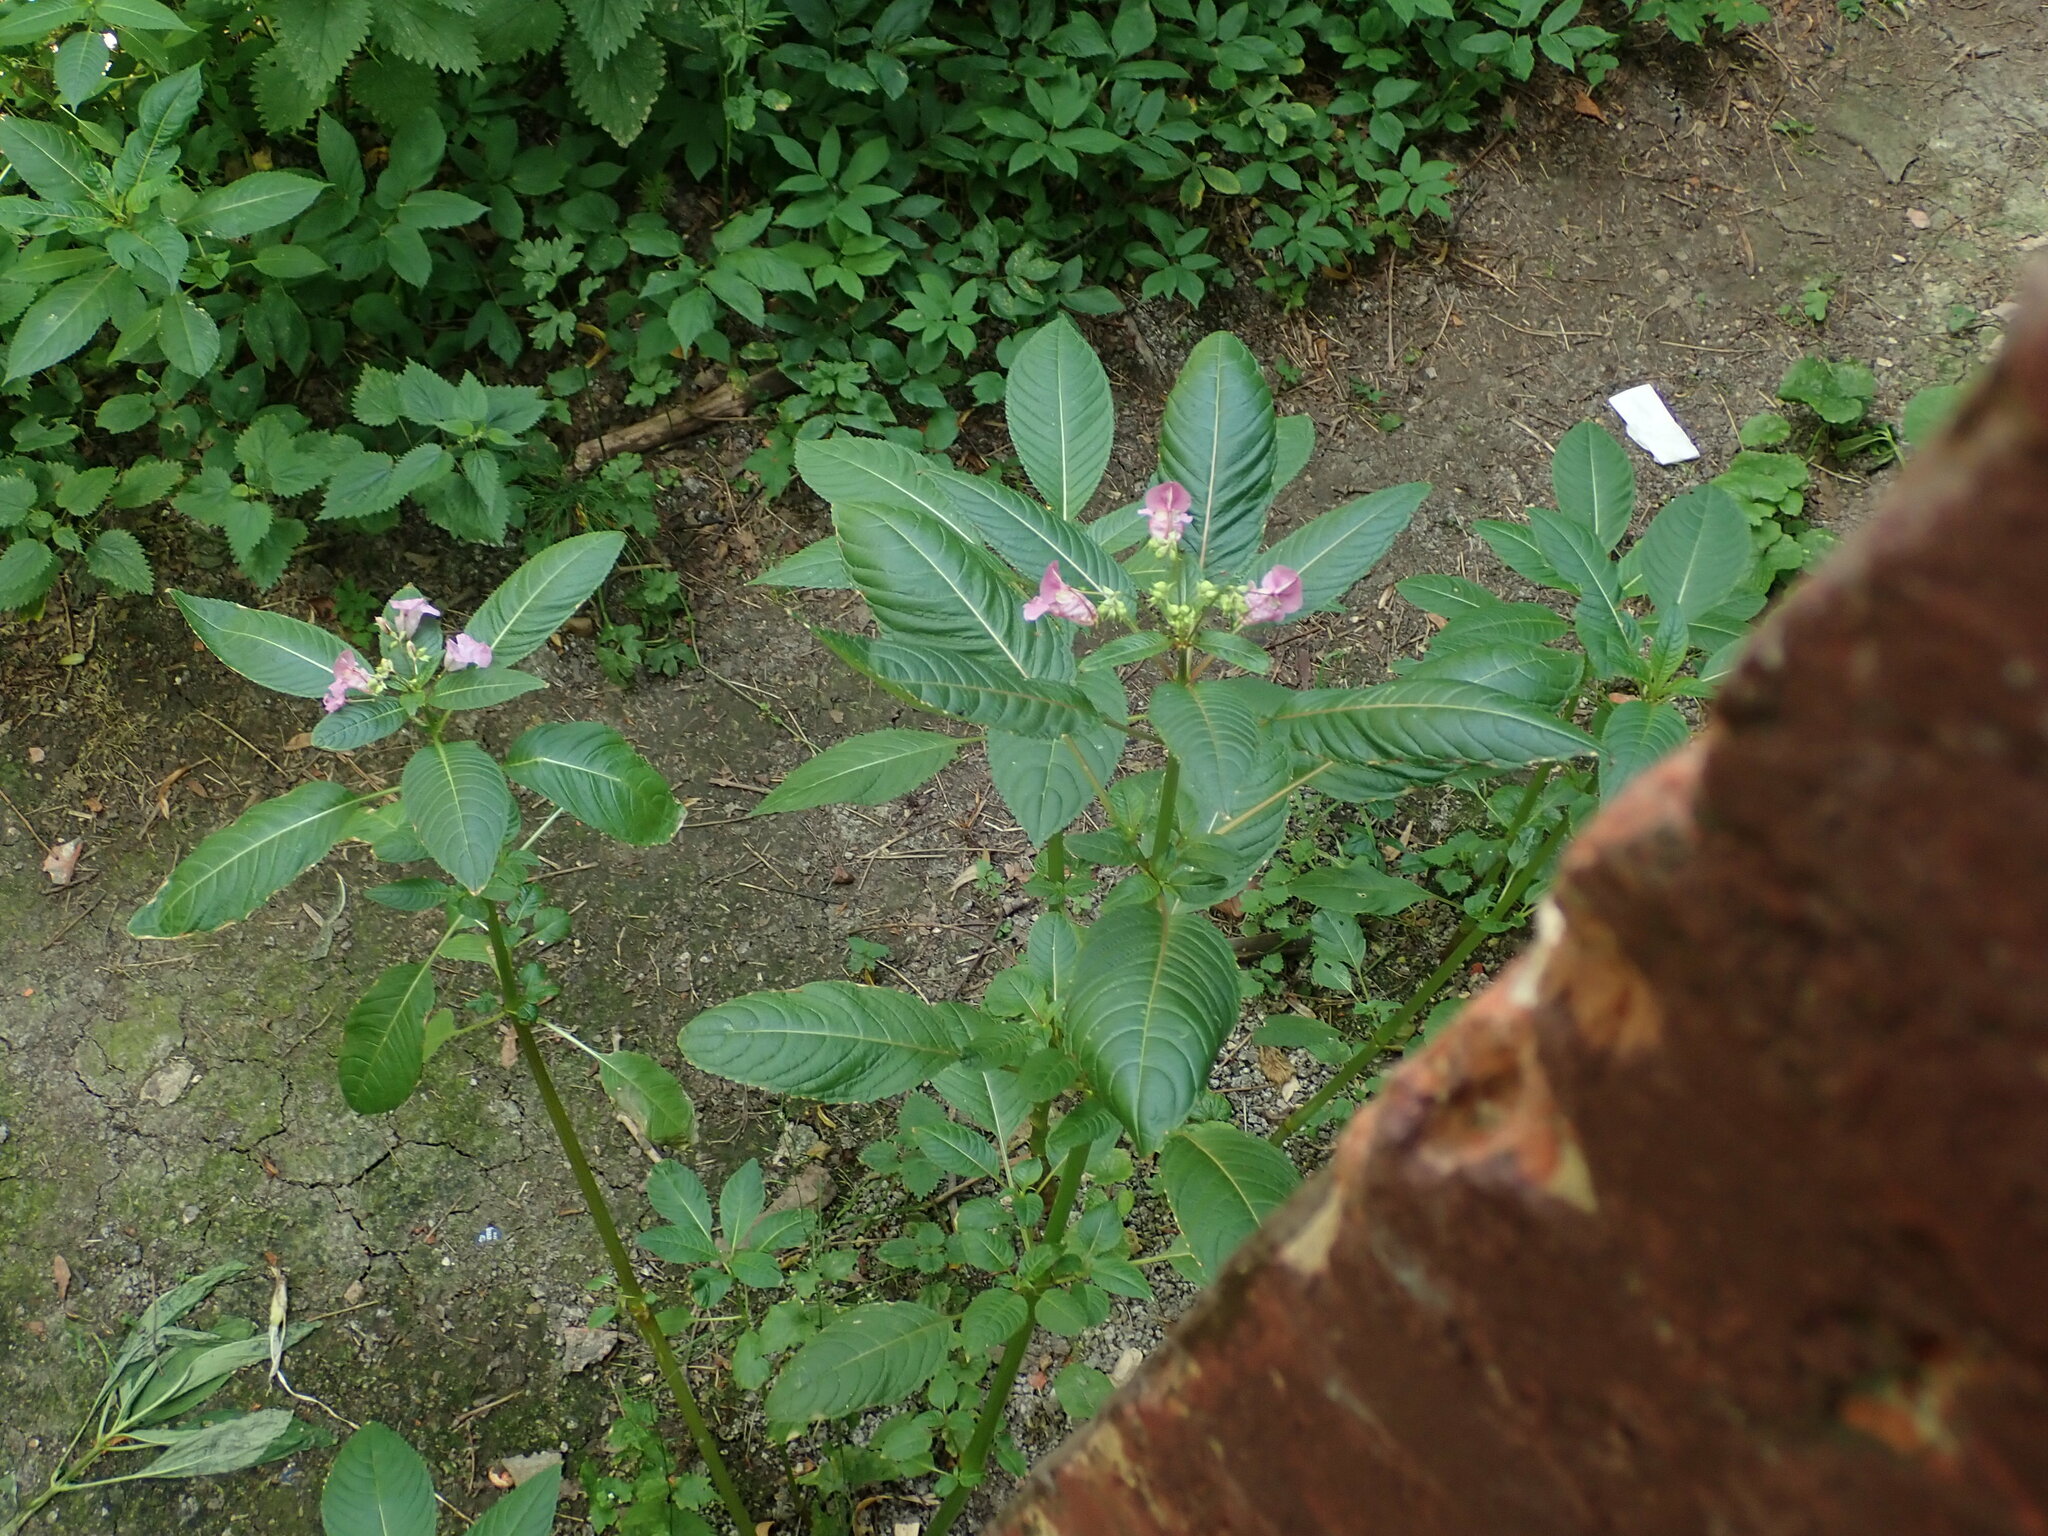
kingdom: Plantae
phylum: Tracheophyta
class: Magnoliopsida
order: Ericales
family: Balsaminaceae
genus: Impatiens
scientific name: Impatiens glandulifera
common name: Himalayan balsam
